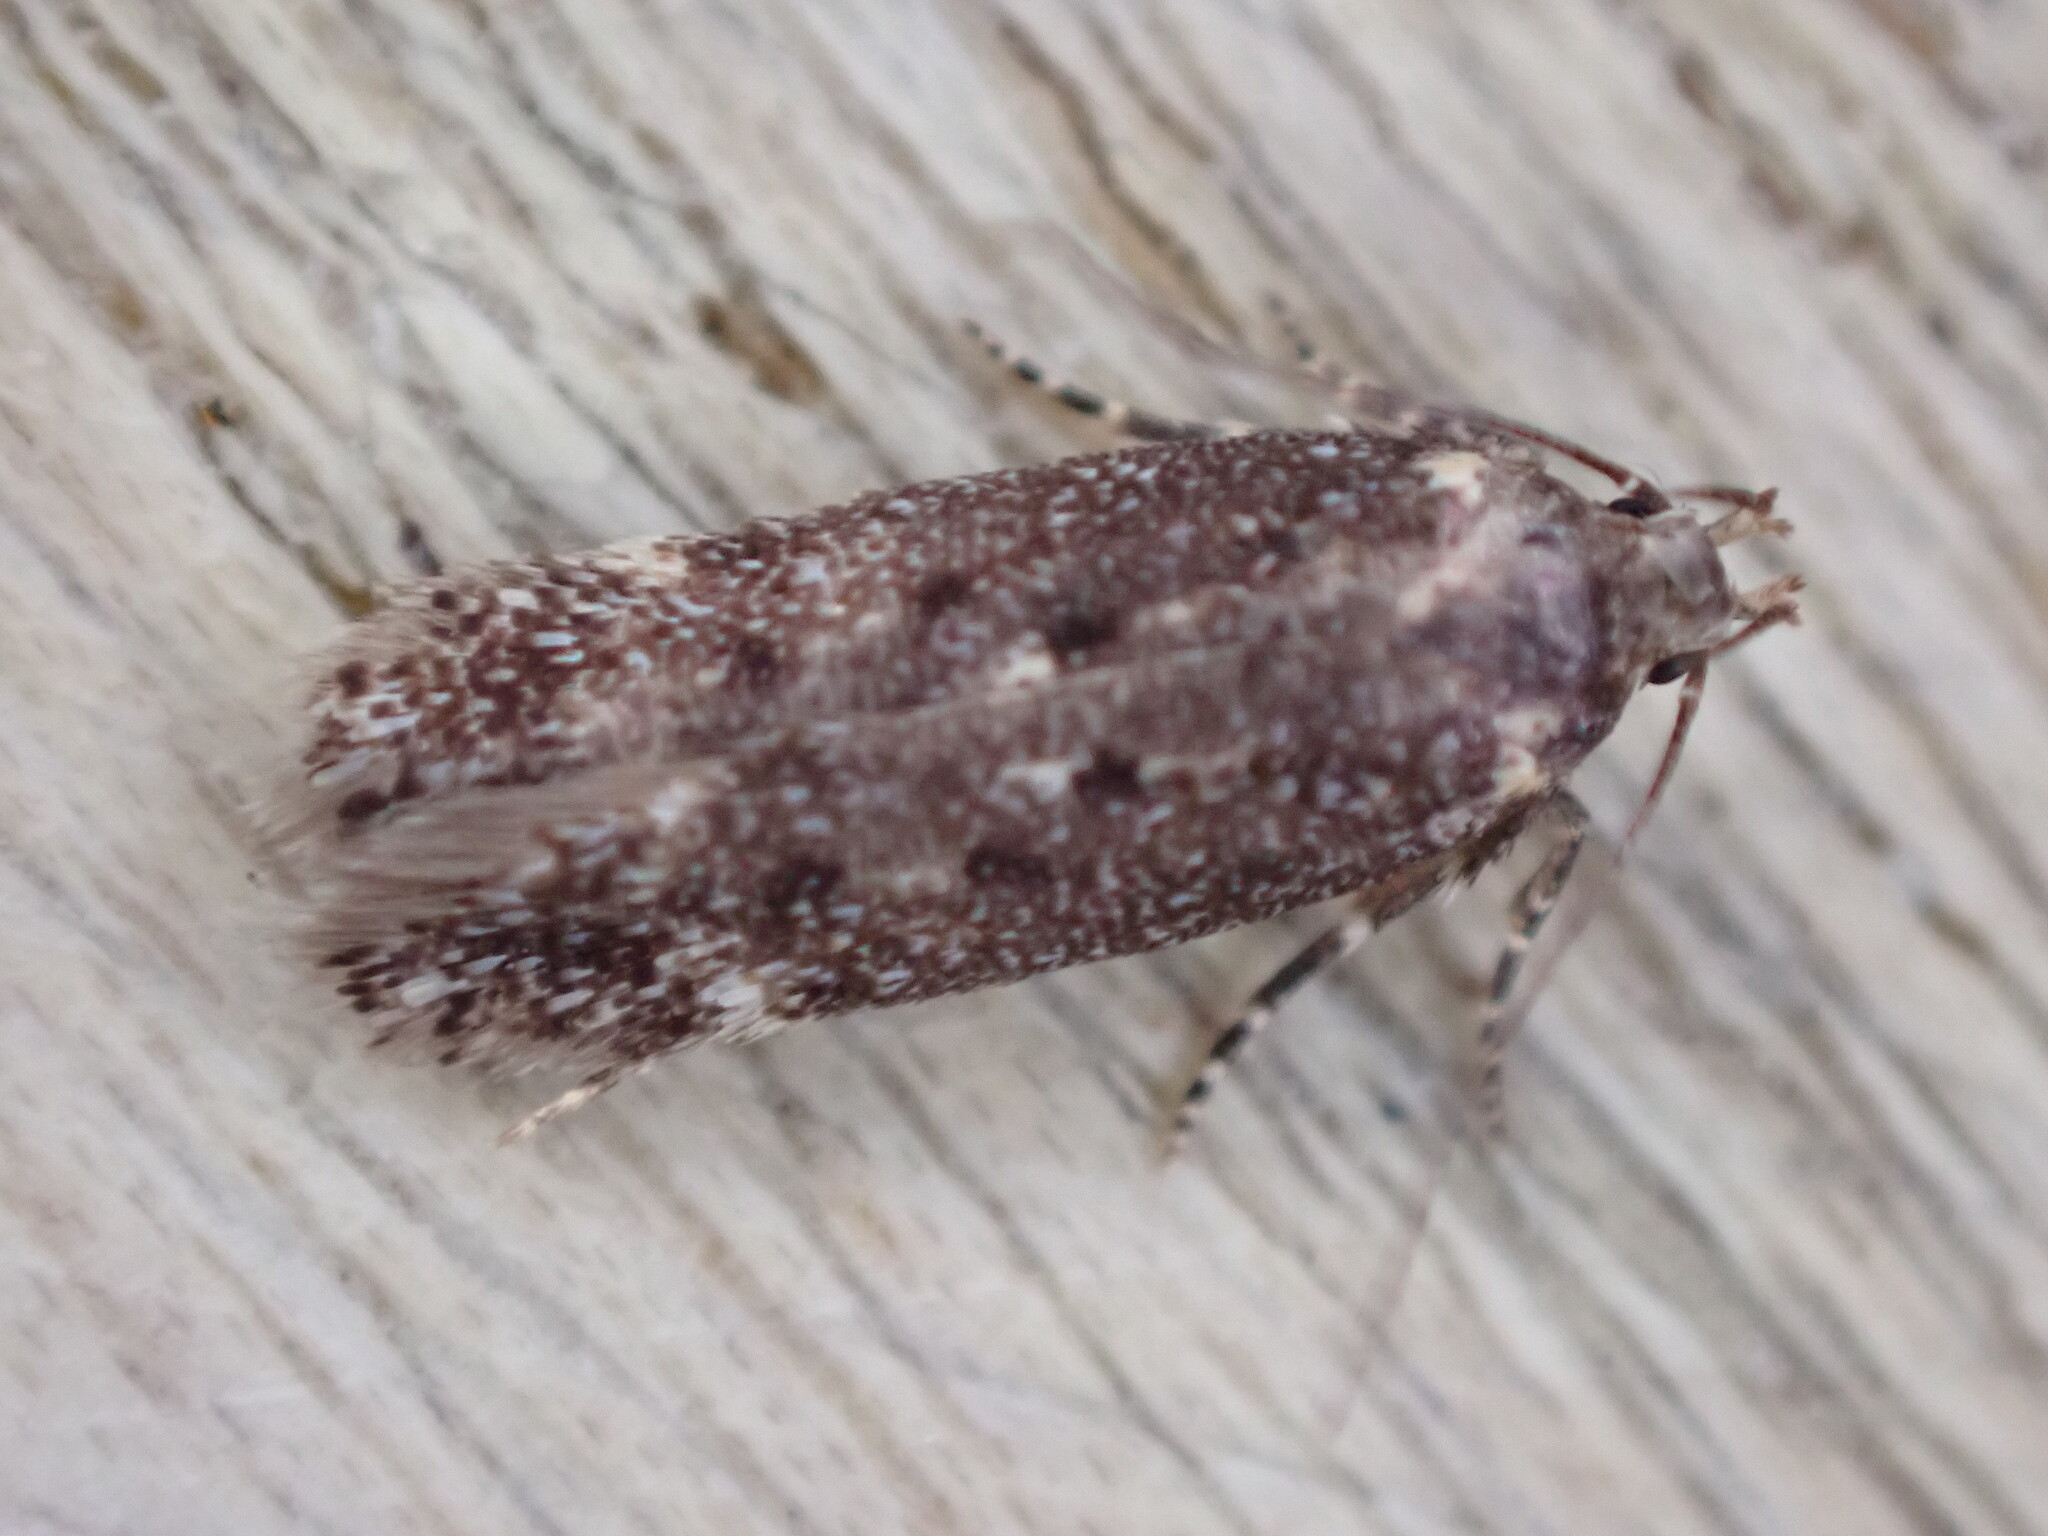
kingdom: Animalia
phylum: Arthropoda
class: Insecta
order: Lepidoptera
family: Gelechiidae
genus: Bryotropha
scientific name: Bryotropha affinis
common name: Dark groundling
